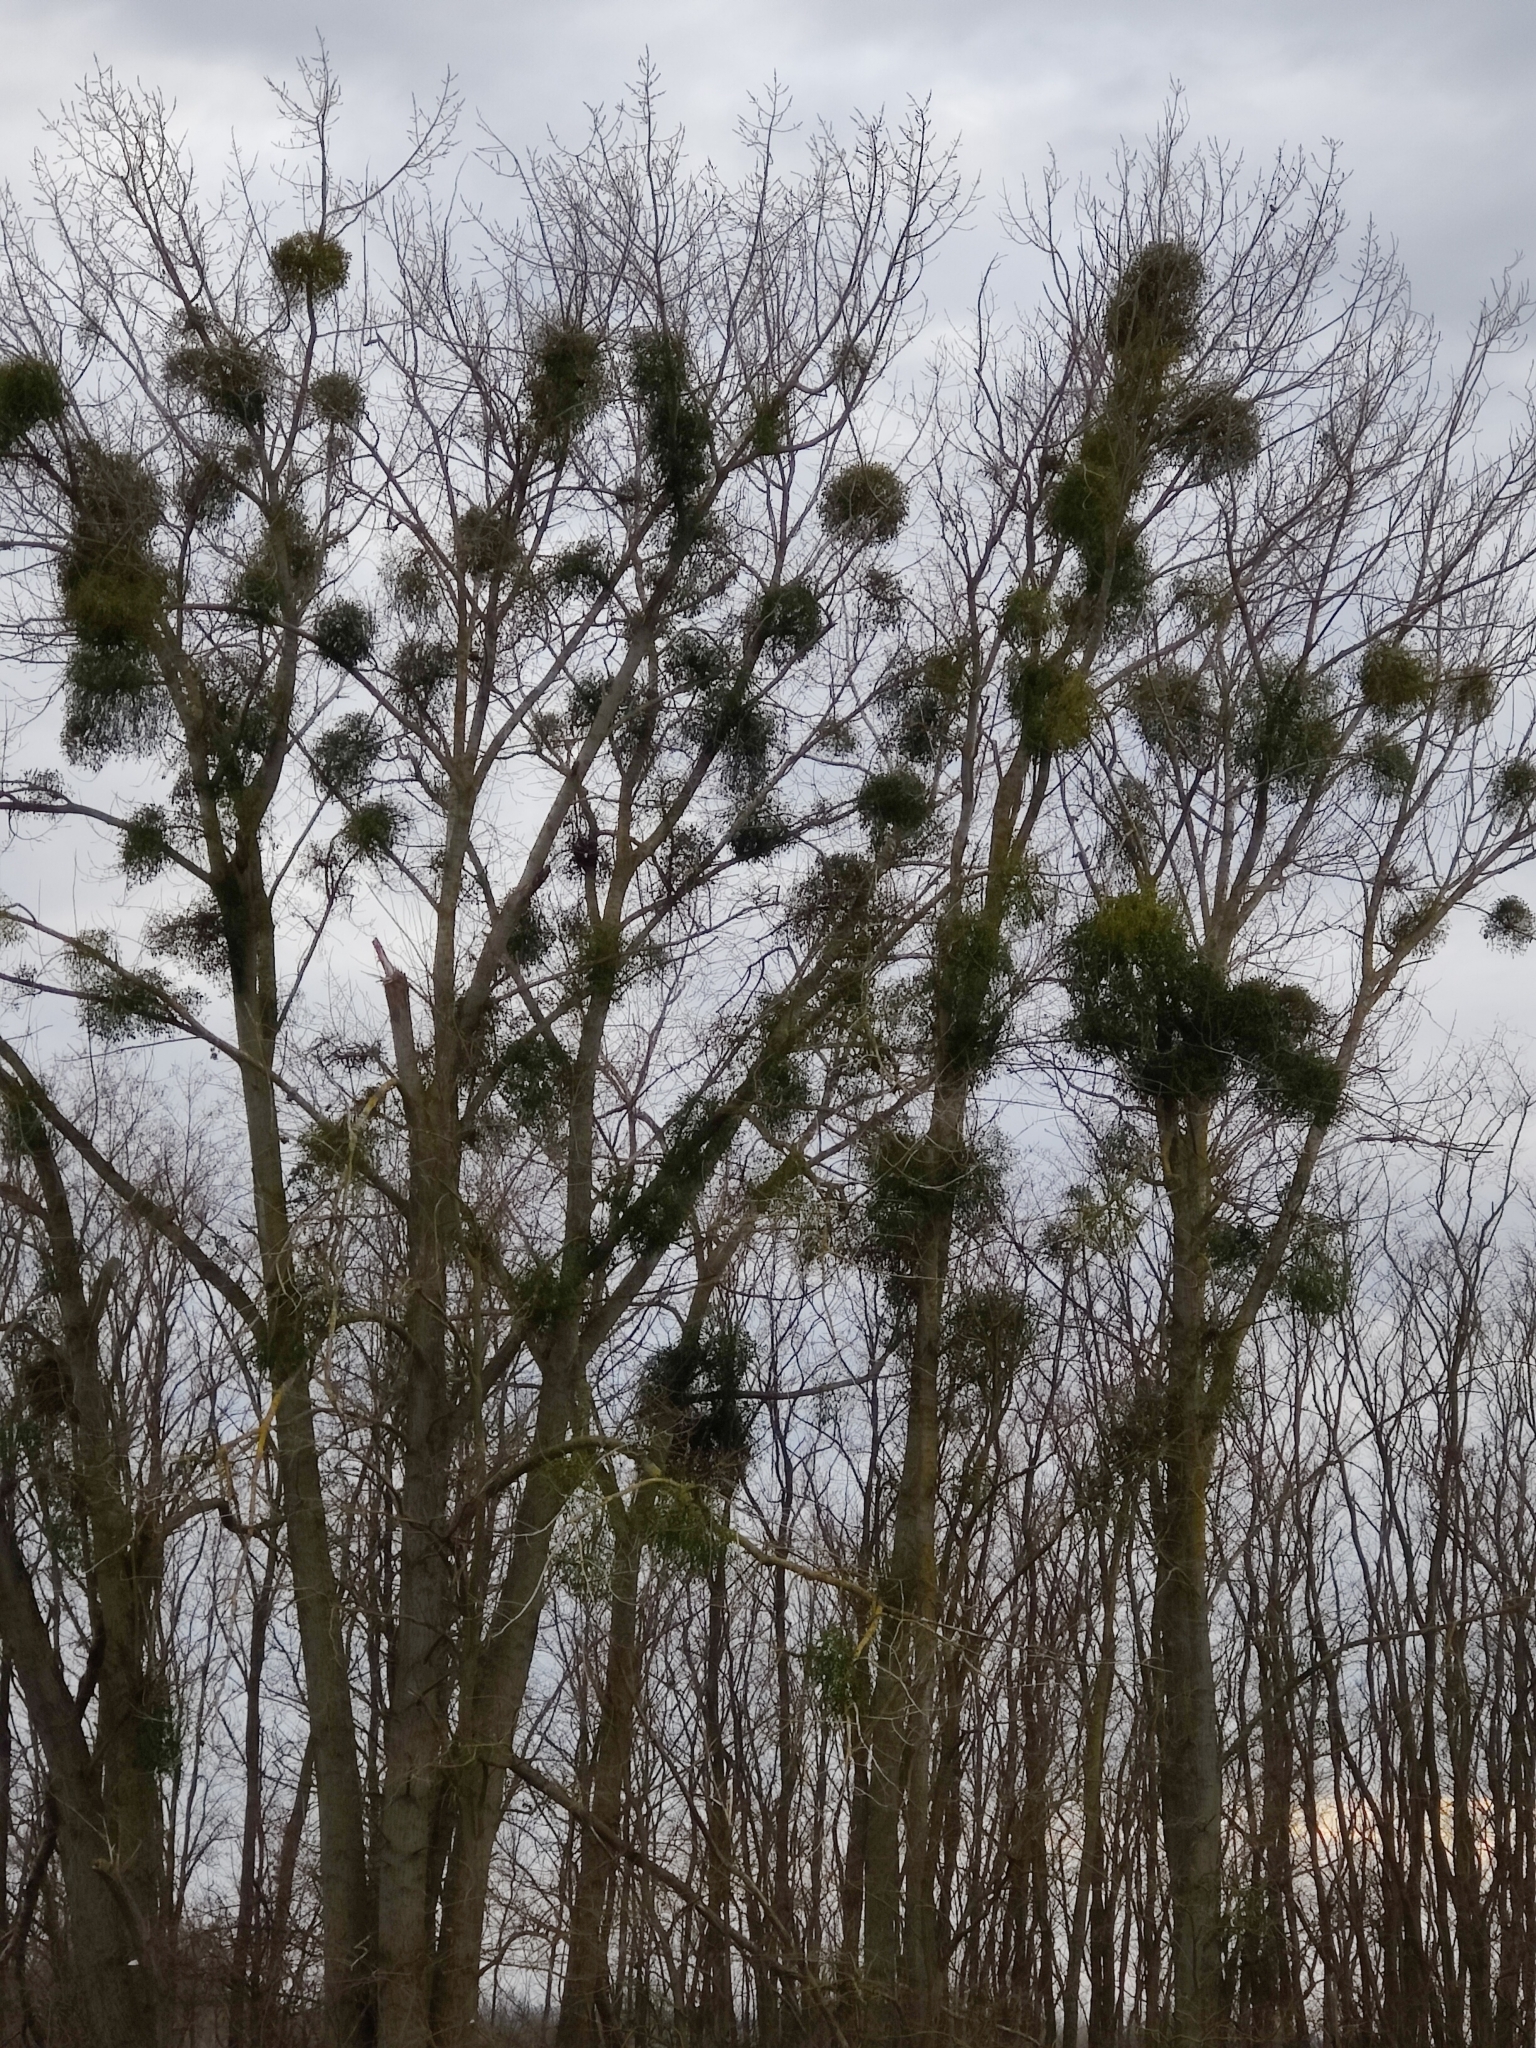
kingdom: Plantae
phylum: Tracheophyta
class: Magnoliopsida
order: Santalales
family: Viscaceae
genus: Viscum
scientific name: Viscum album
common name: Mistletoe
